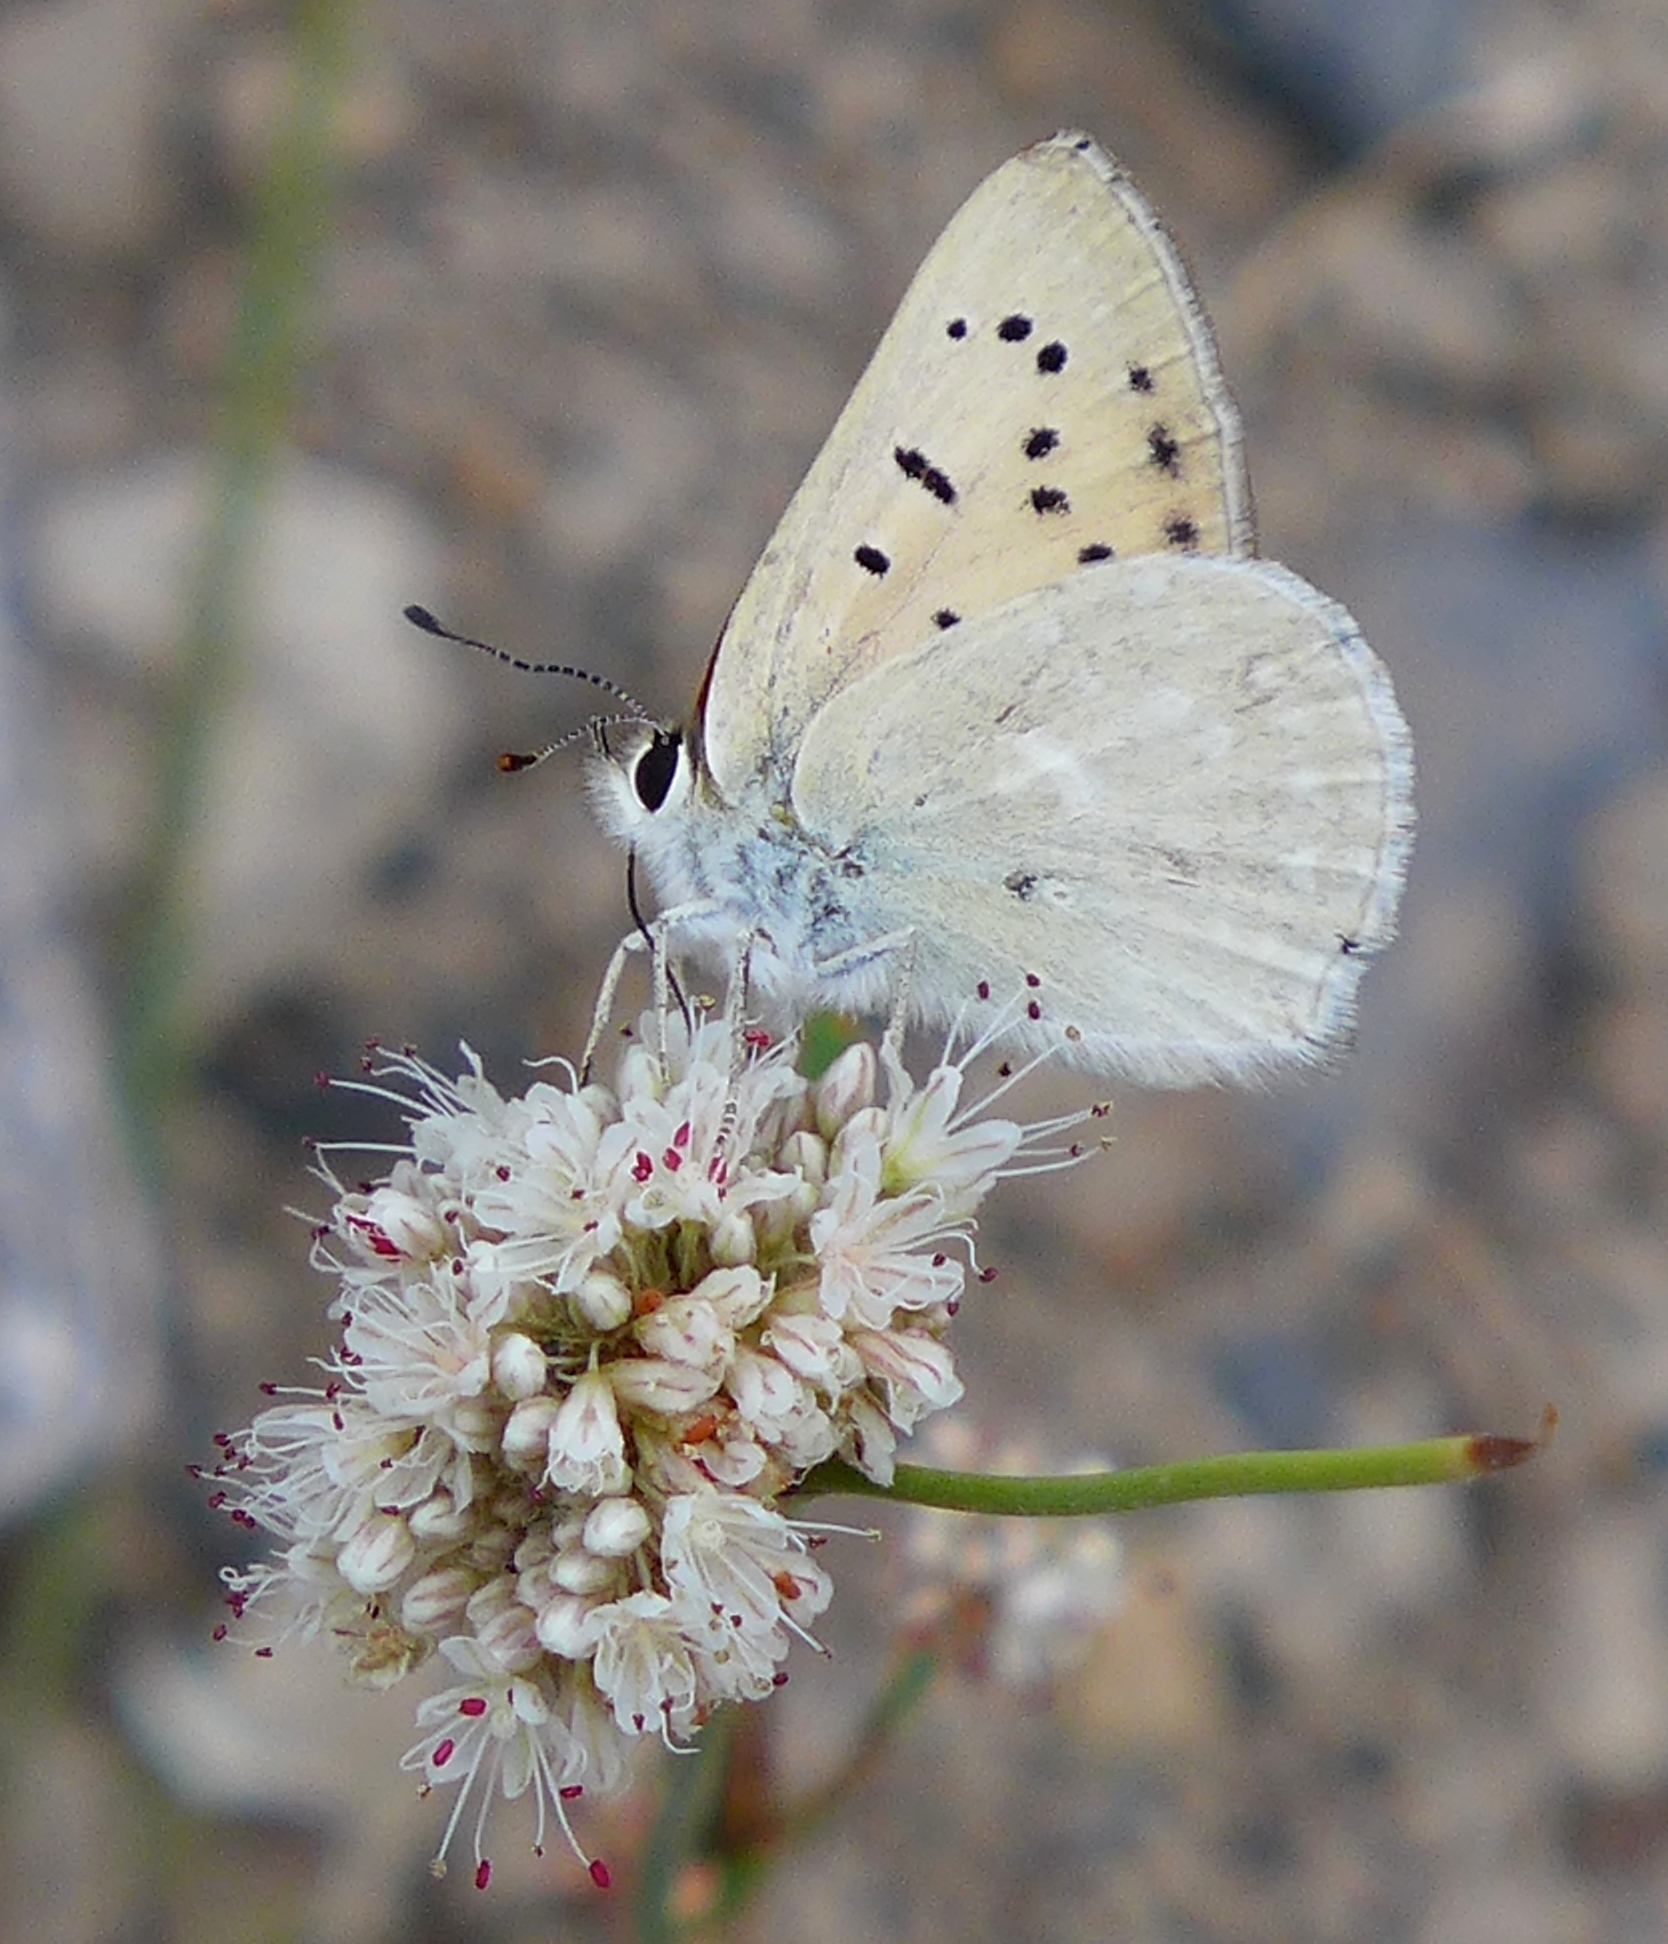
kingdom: Animalia
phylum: Arthropoda
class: Insecta
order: Lepidoptera
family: Lycaenidae
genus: Tharsalea
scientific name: Tharsalea rubidus
